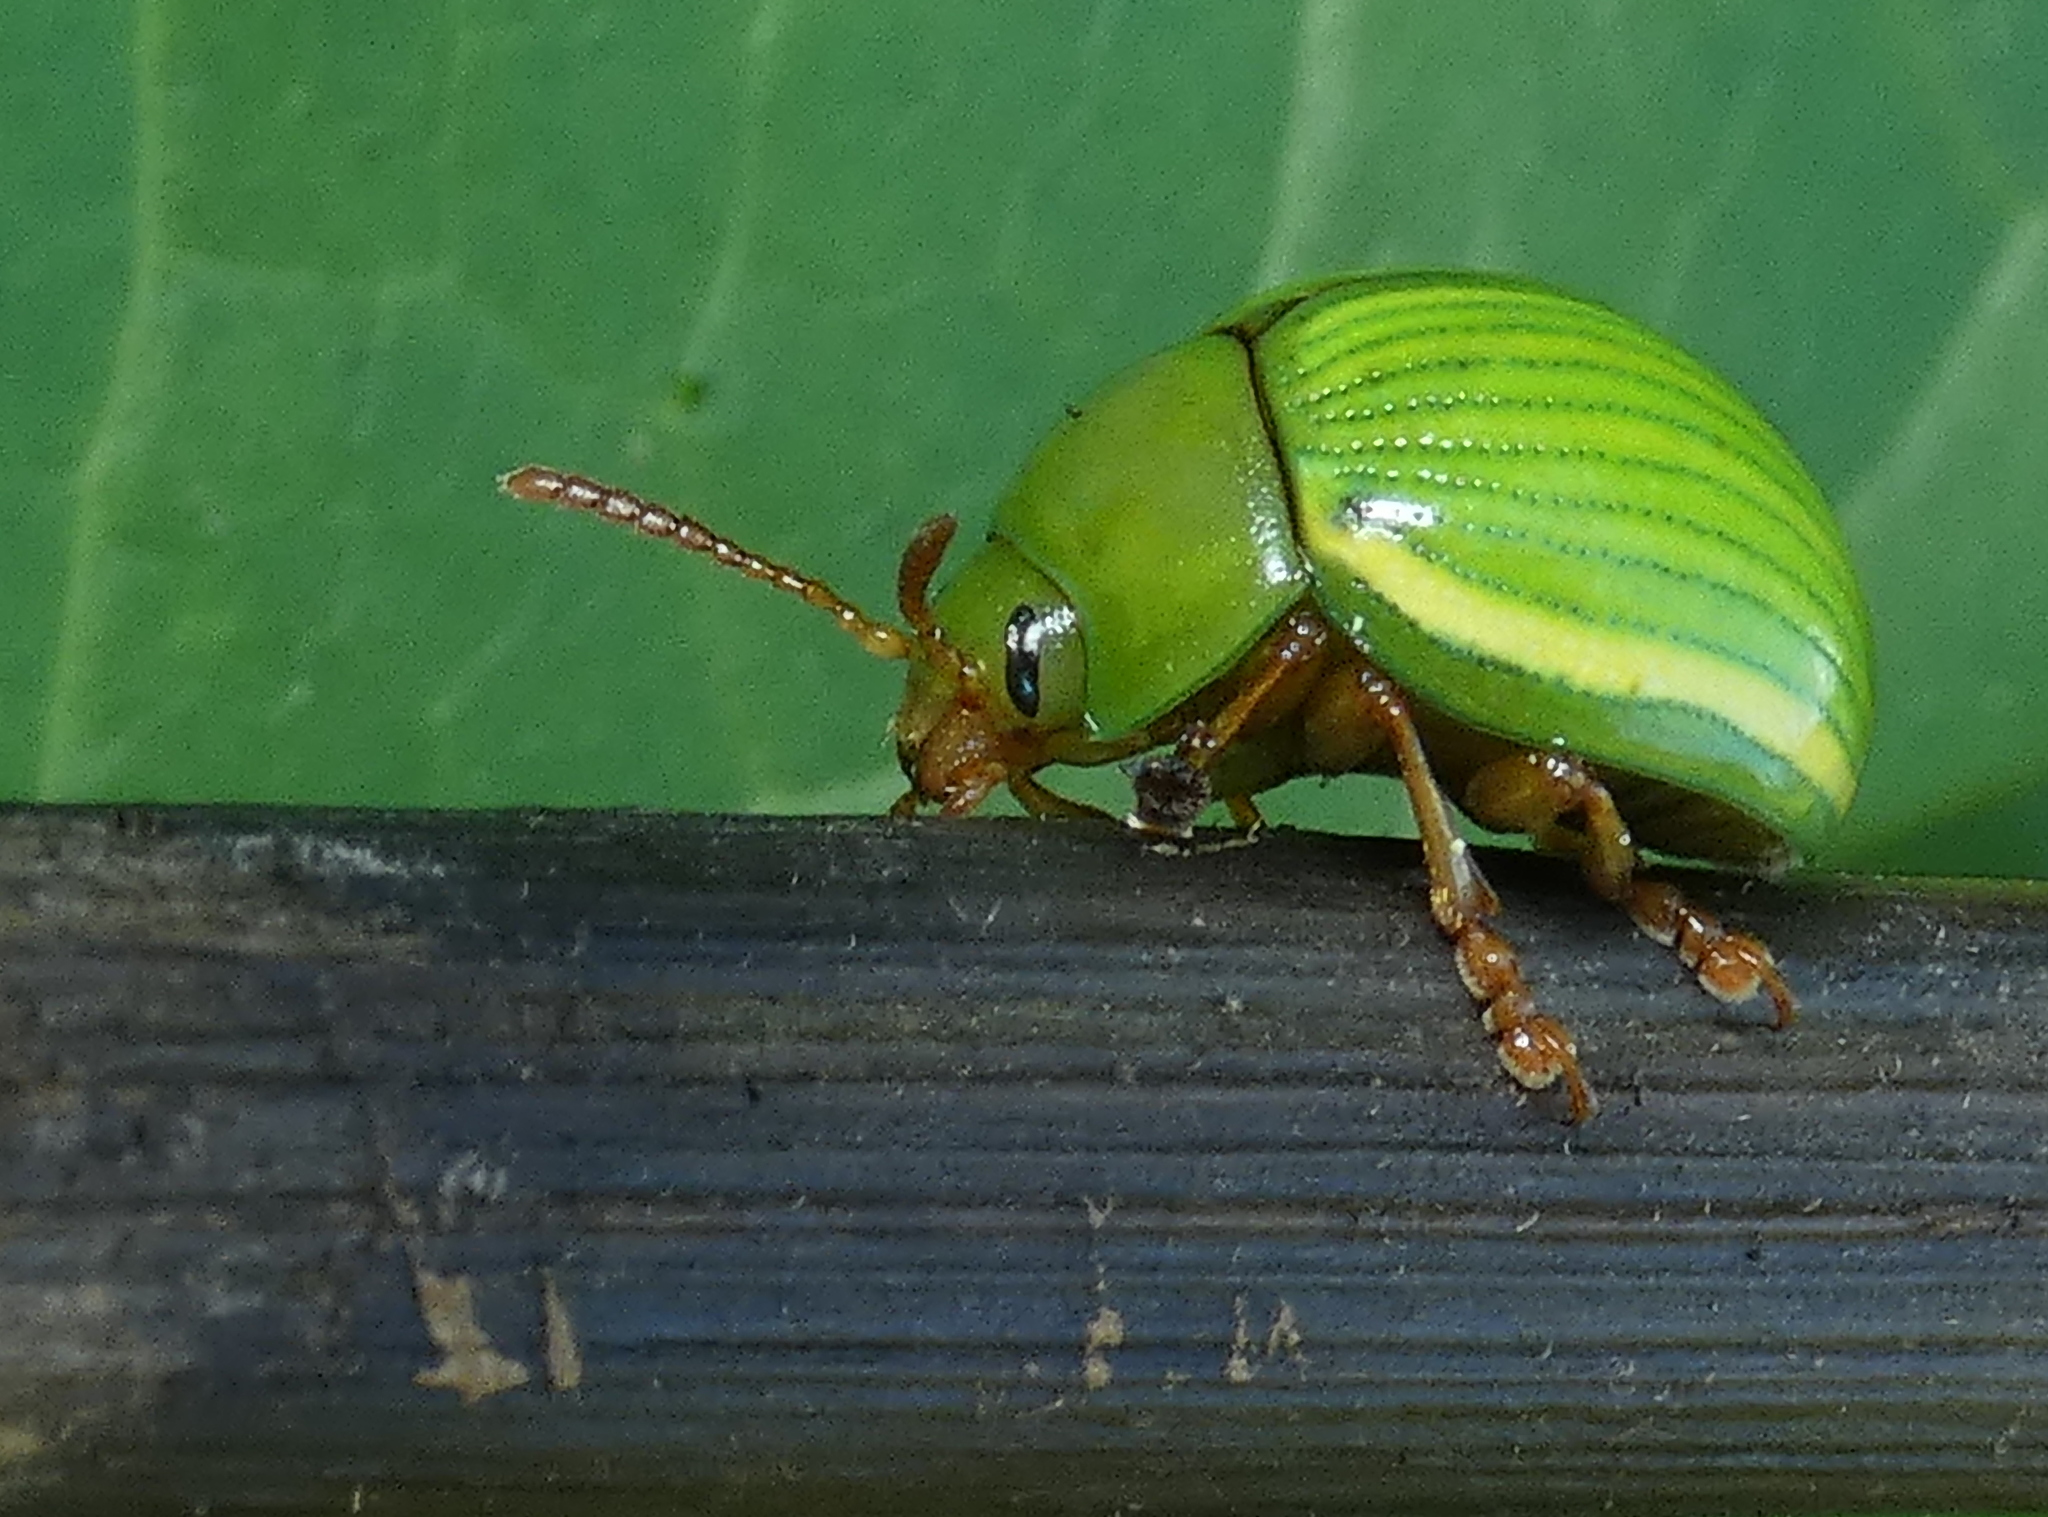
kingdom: Animalia
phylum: Arthropoda
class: Insecta
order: Coleoptera
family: Chrysomelidae
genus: Platyphora
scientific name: Platyphora
